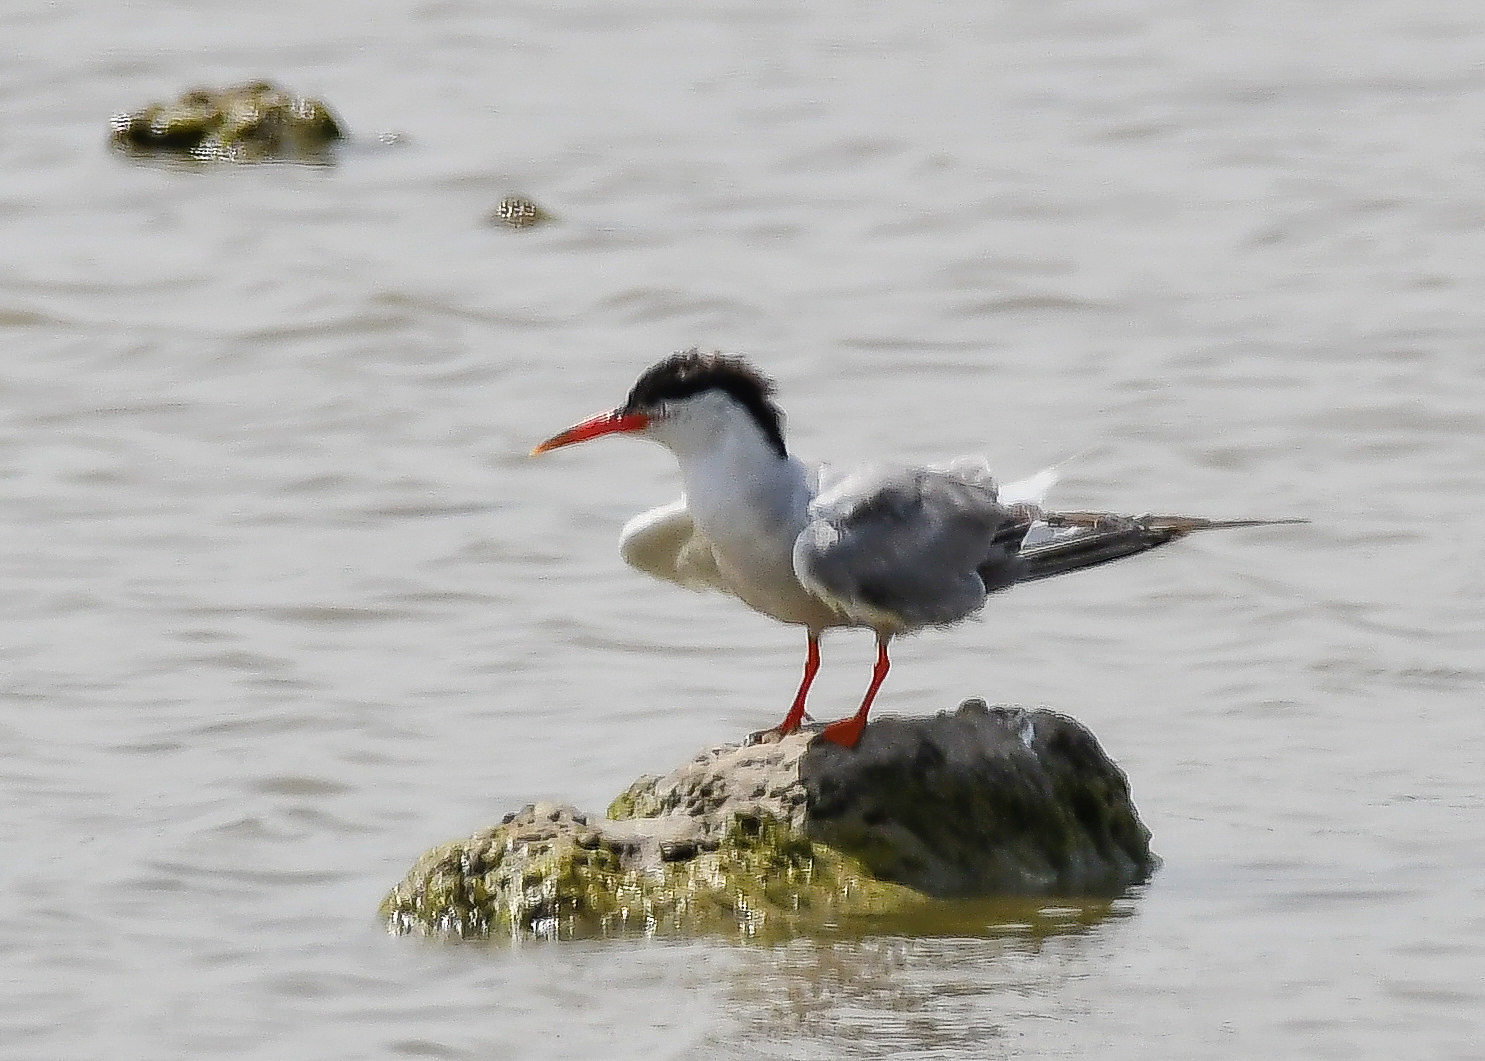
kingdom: Animalia
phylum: Chordata
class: Aves
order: Charadriiformes
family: Laridae
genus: Sterna
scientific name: Sterna hirundo
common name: Common tern
